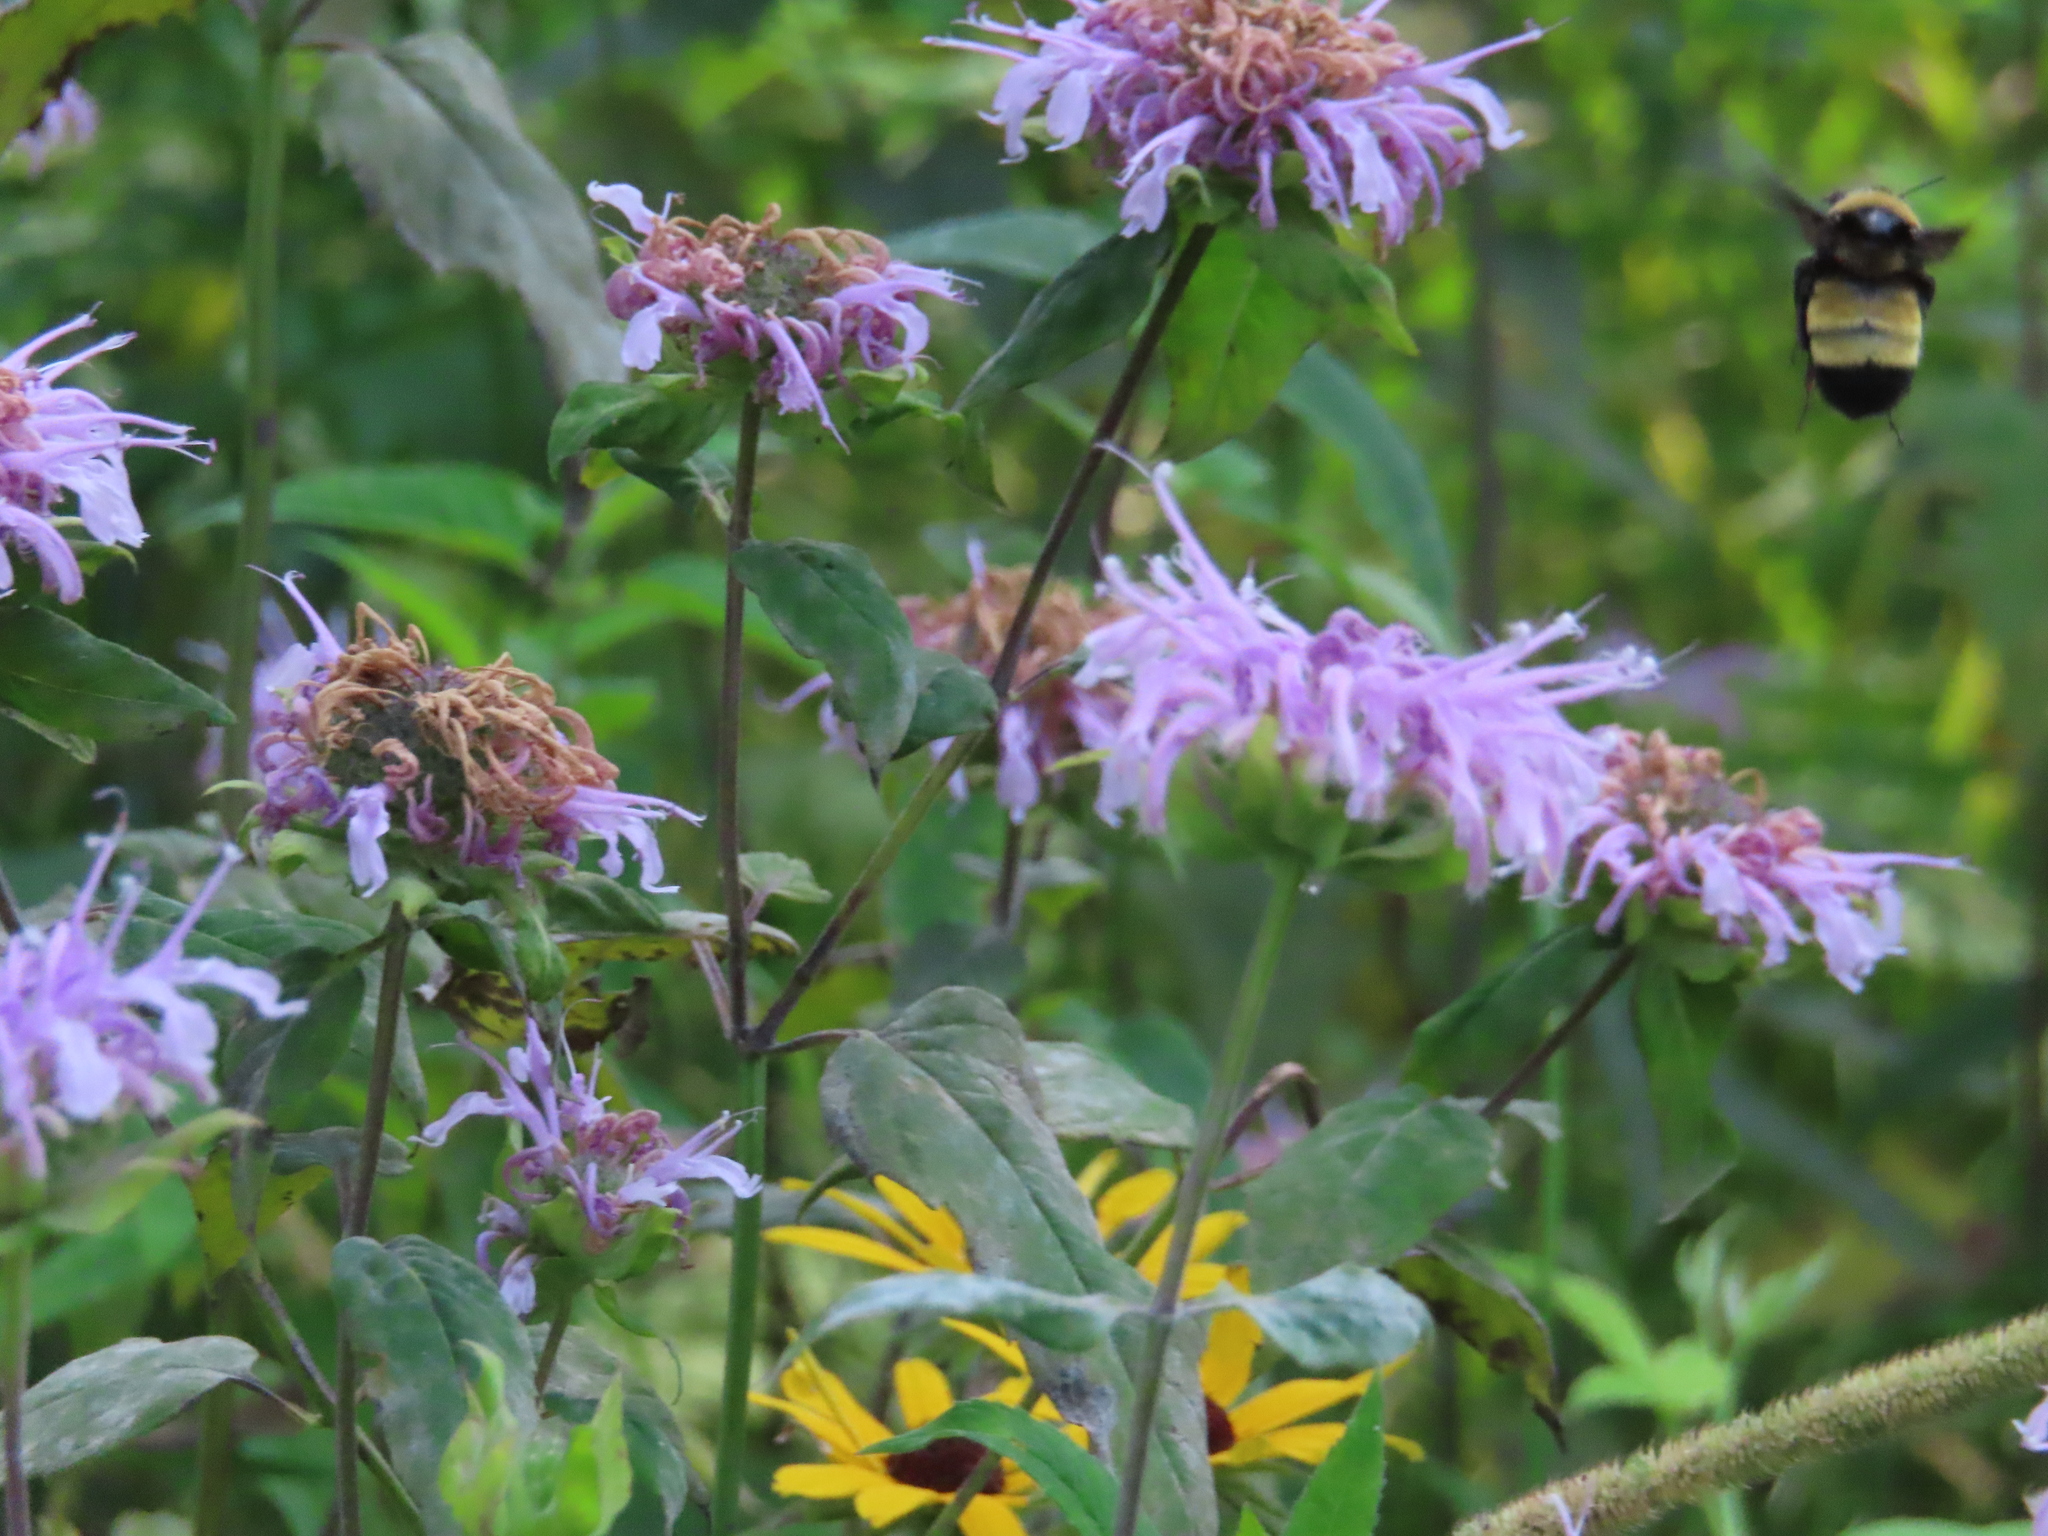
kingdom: Animalia
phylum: Arthropoda
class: Insecta
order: Hymenoptera
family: Apidae
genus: Bombus
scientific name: Bombus auricomus
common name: Black and gold bumble bee
